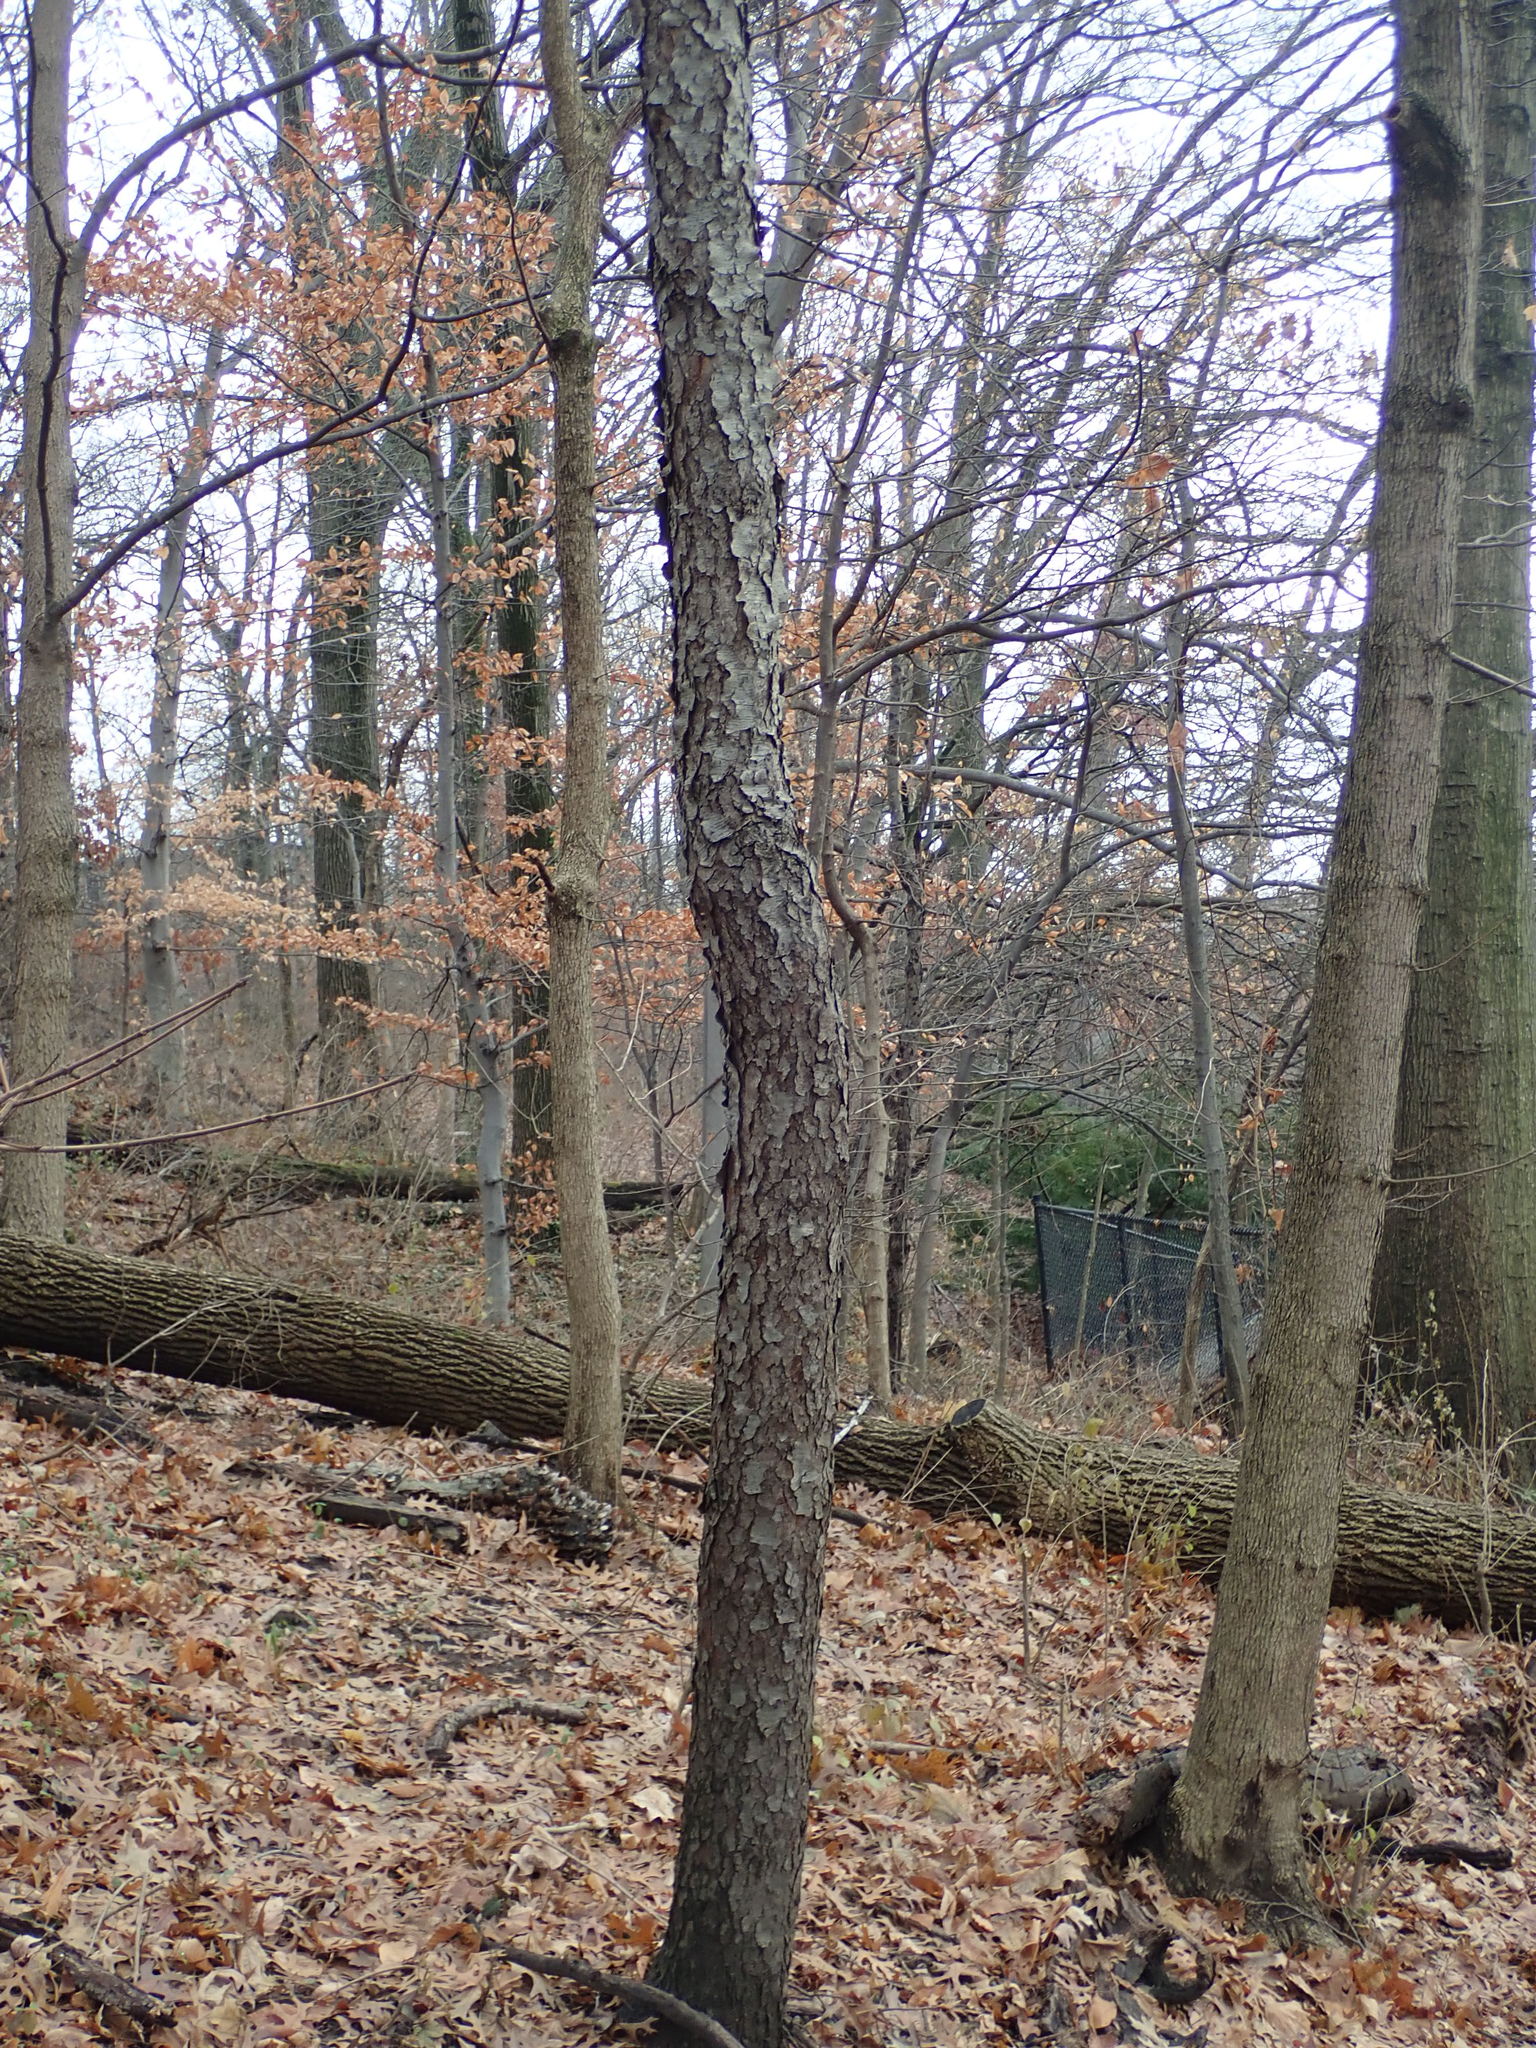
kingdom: Plantae
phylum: Tracheophyta
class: Magnoliopsida
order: Rosales
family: Rosaceae
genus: Prunus
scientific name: Prunus serotina
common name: Black cherry
